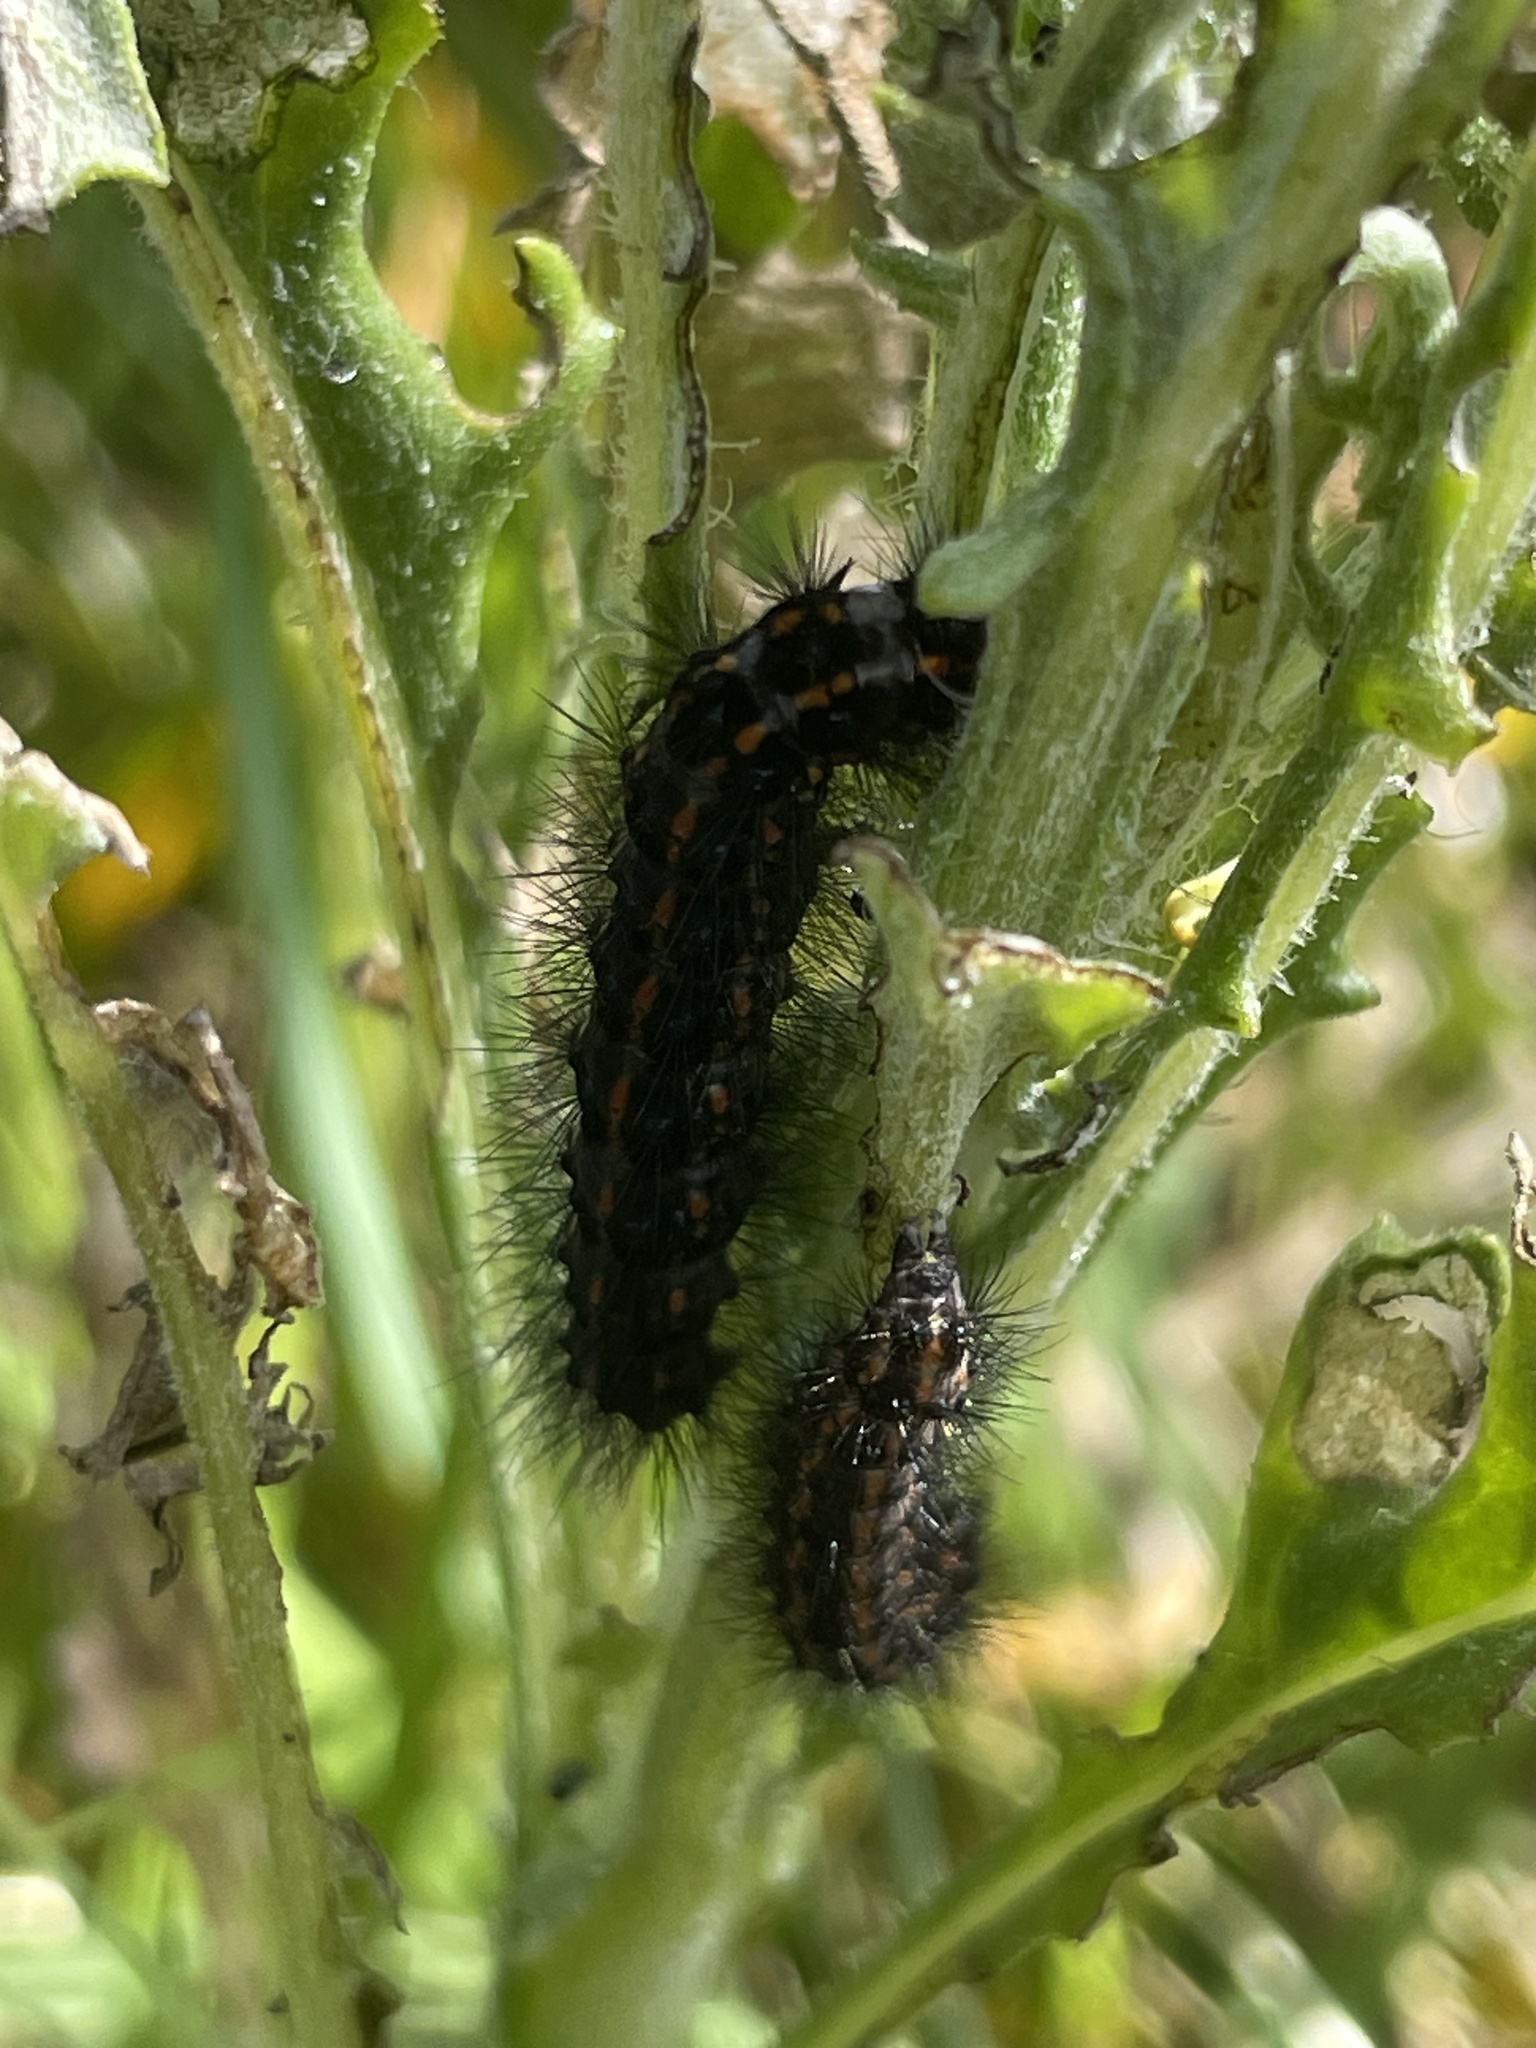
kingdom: Animalia
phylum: Arthropoda
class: Insecta
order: Lepidoptera
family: Erebidae
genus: Nyctemera
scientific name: Nyctemera annulatum
